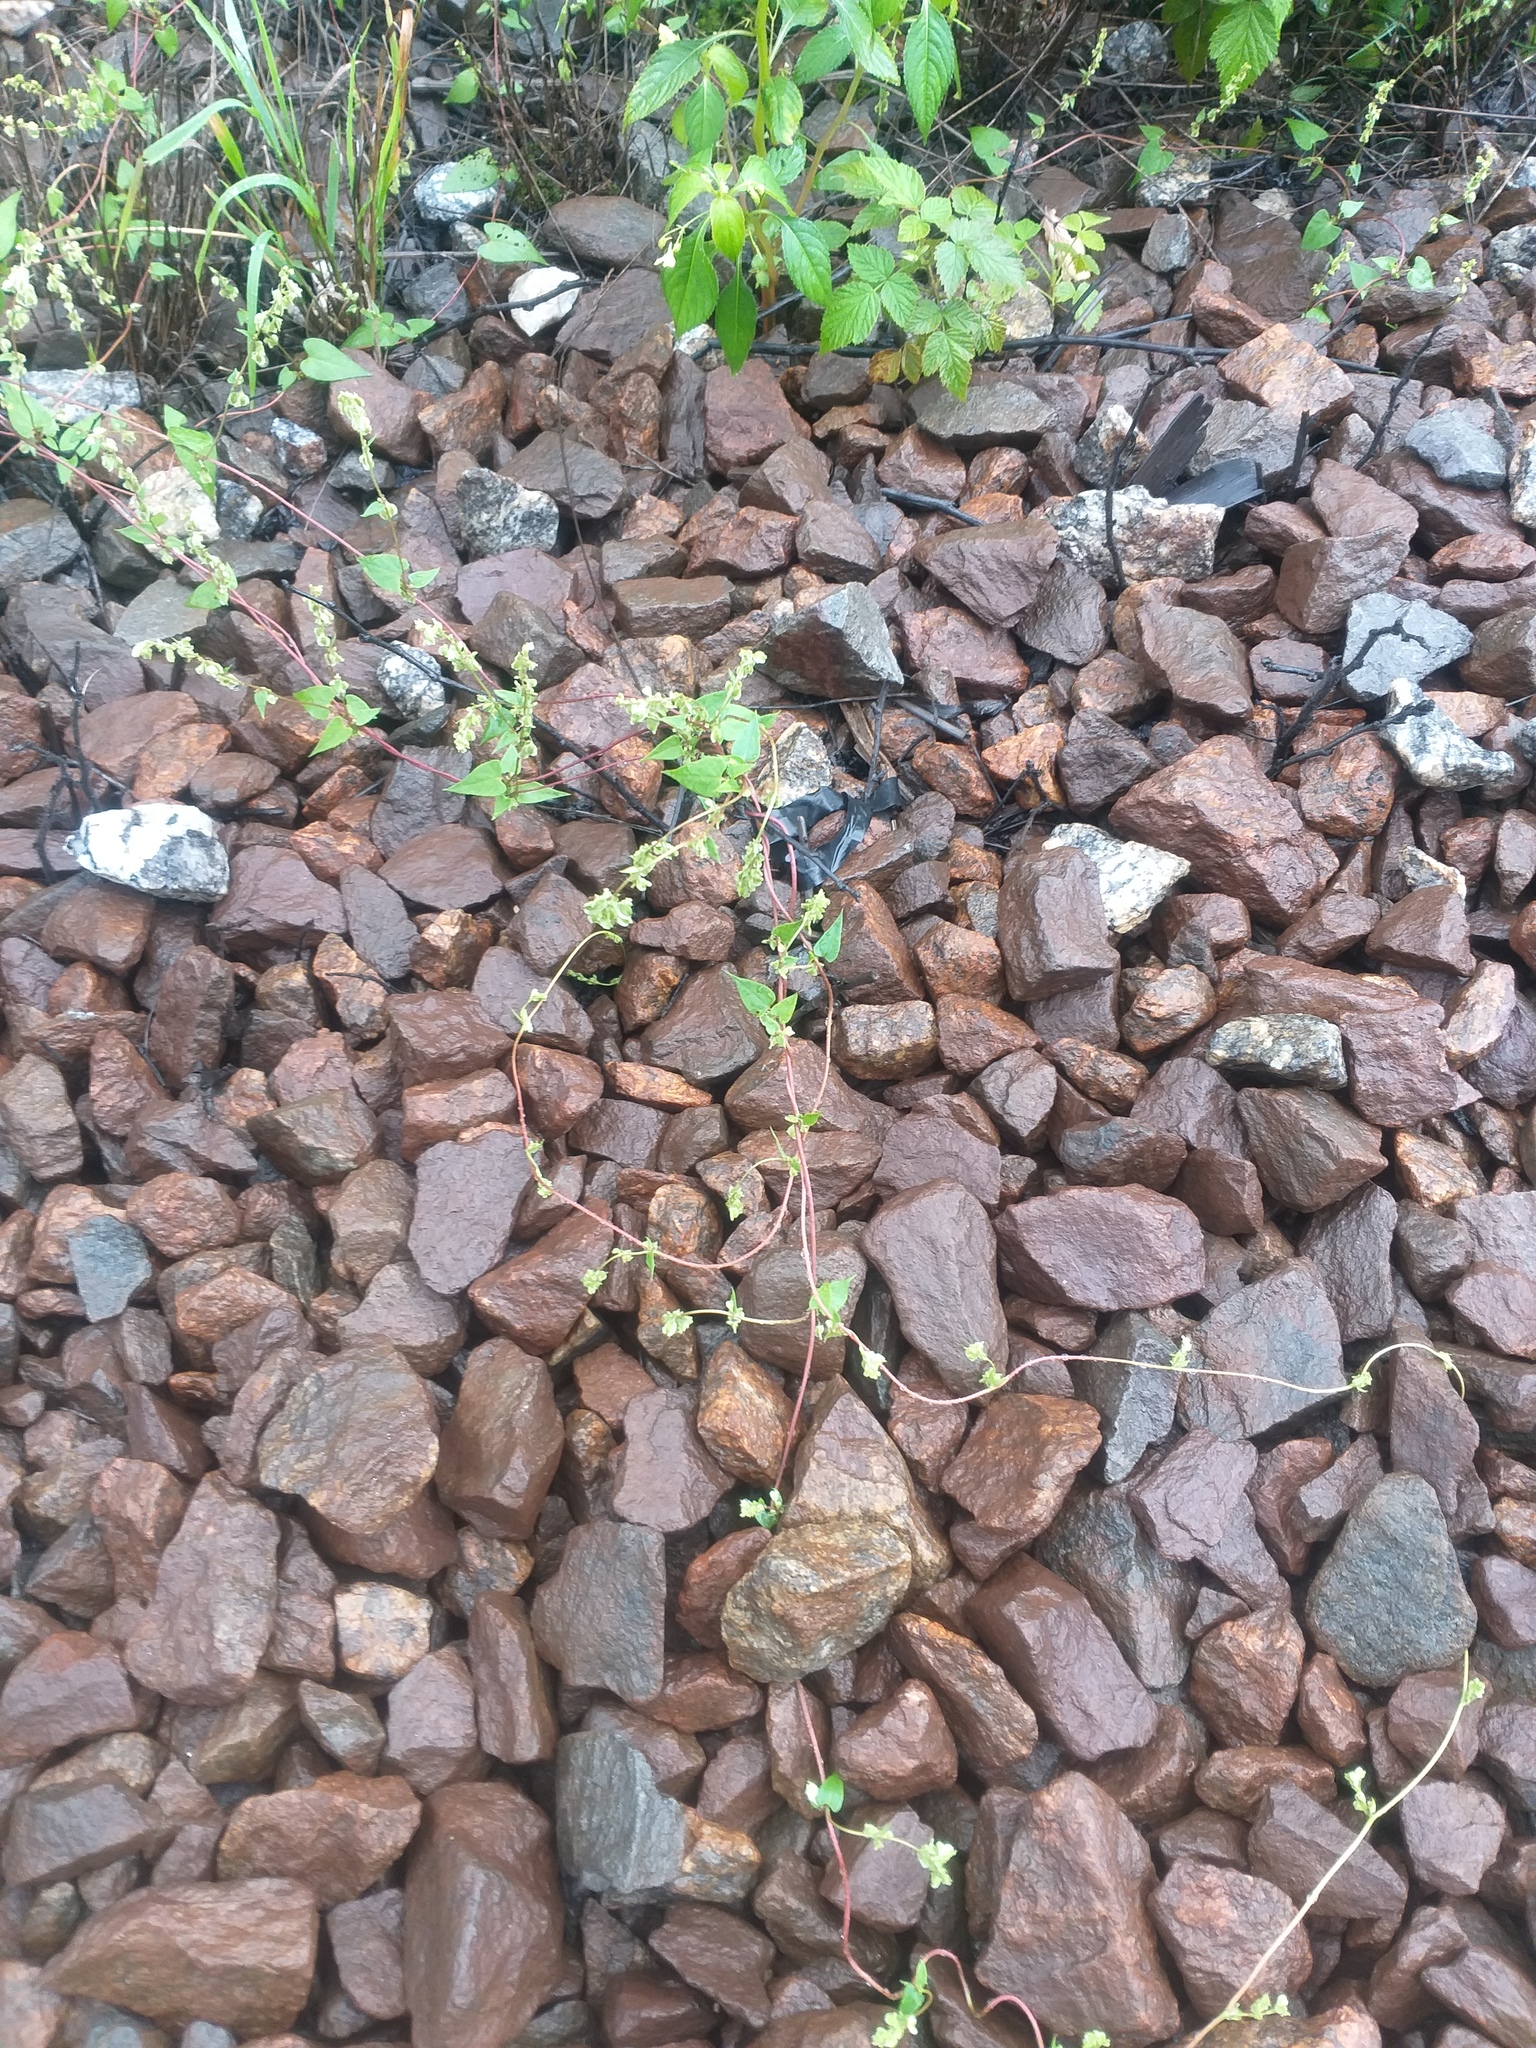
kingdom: Plantae
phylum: Tracheophyta
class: Magnoliopsida
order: Caryophyllales
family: Polygonaceae
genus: Fallopia
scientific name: Fallopia dumetorum
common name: Copse-bindweed
